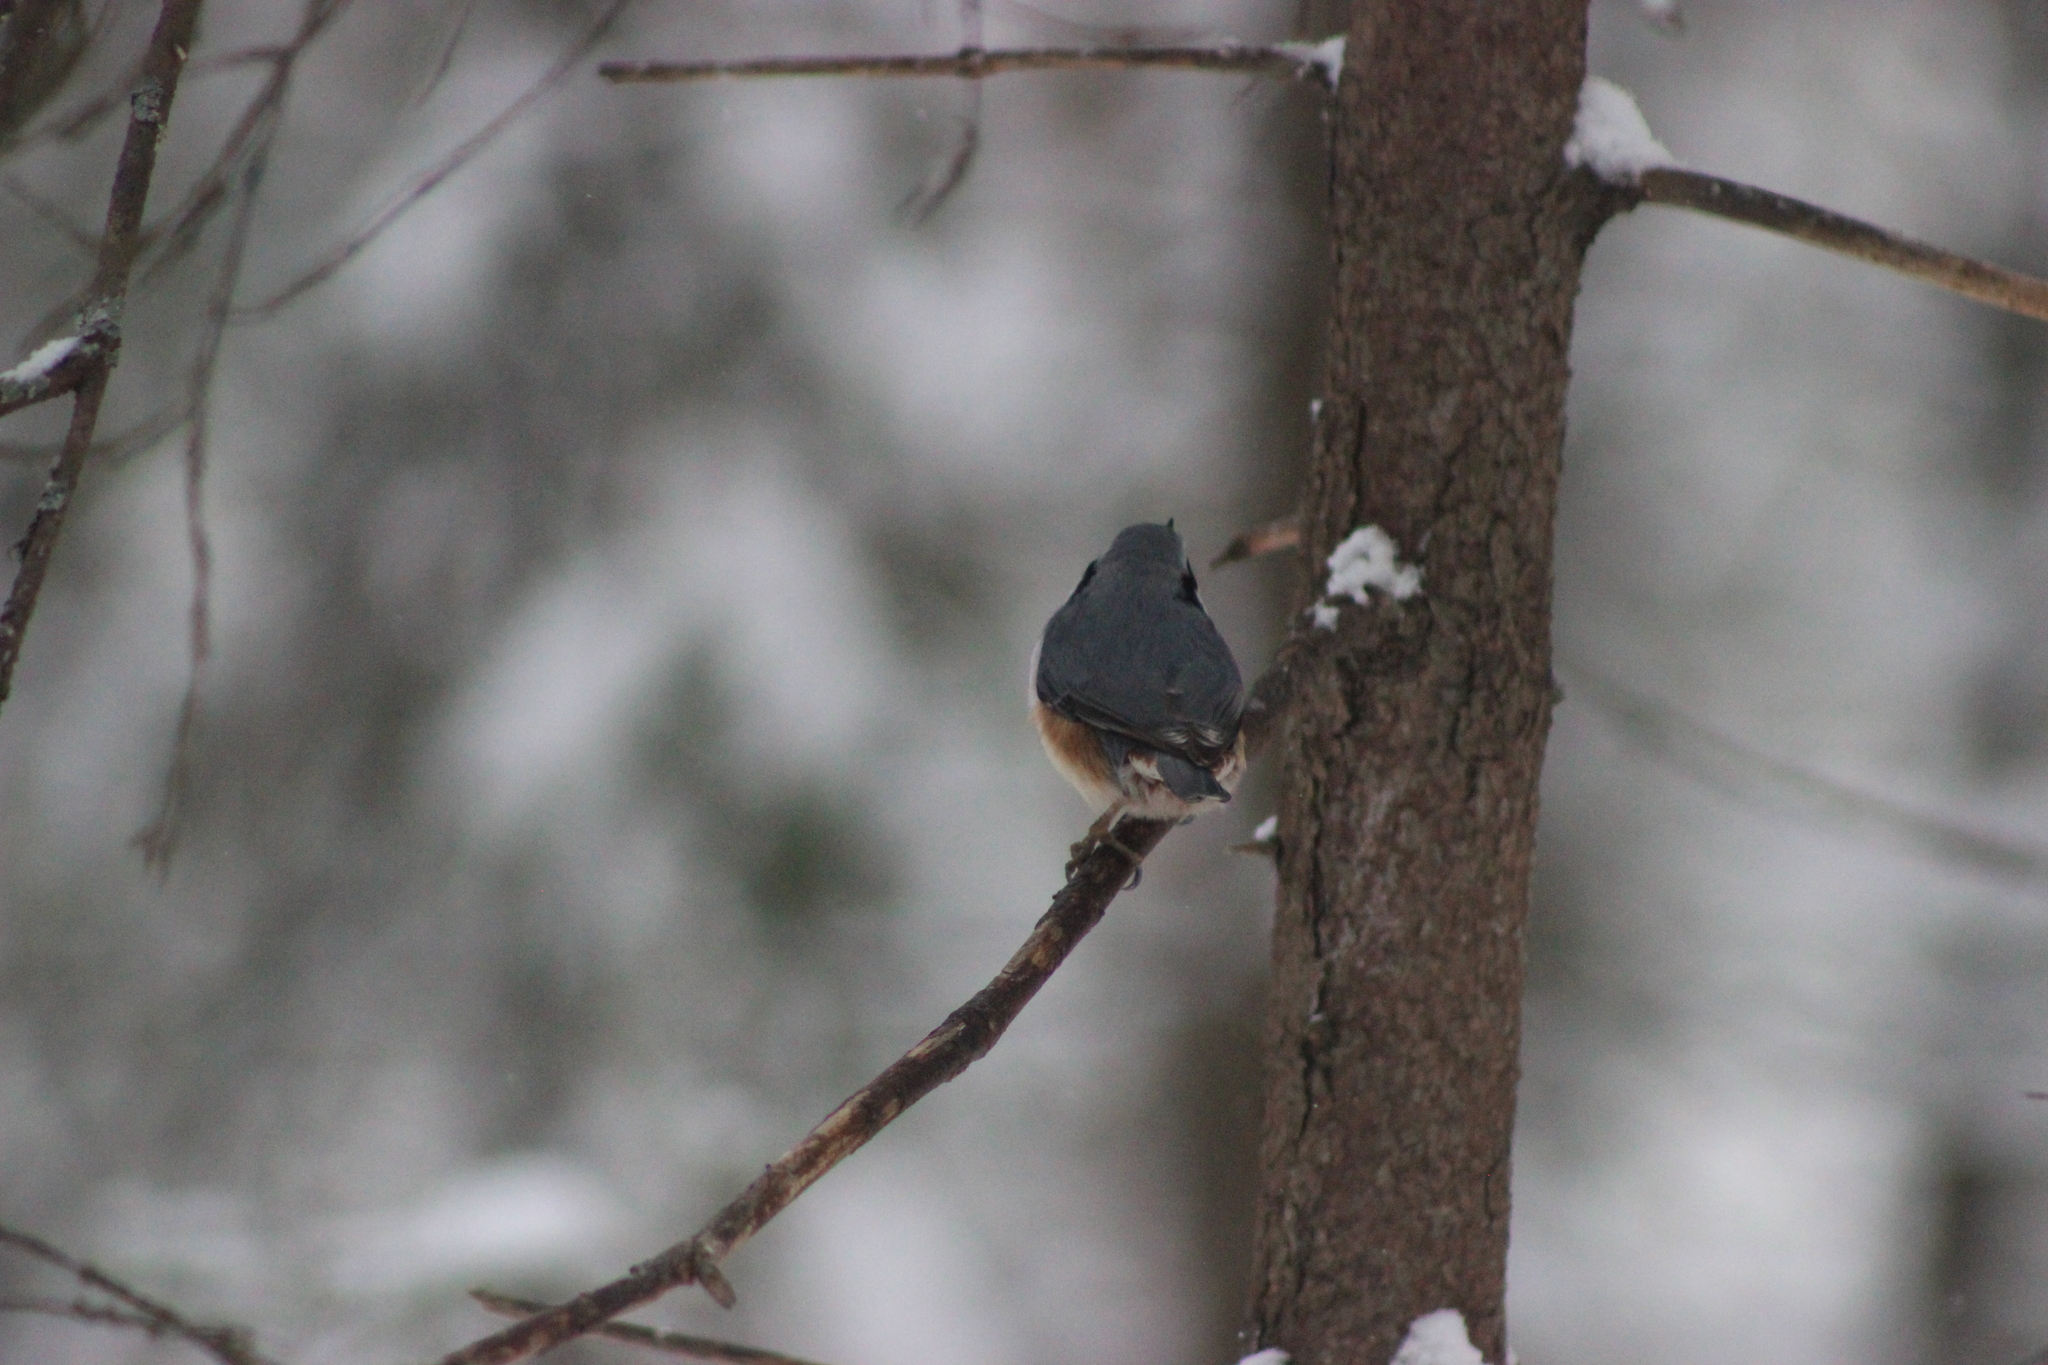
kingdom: Animalia
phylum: Chordata
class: Aves
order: Passeriformes
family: Sittidae
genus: Sitta
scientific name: Sitta europaea
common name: Eurasian nuthatch
